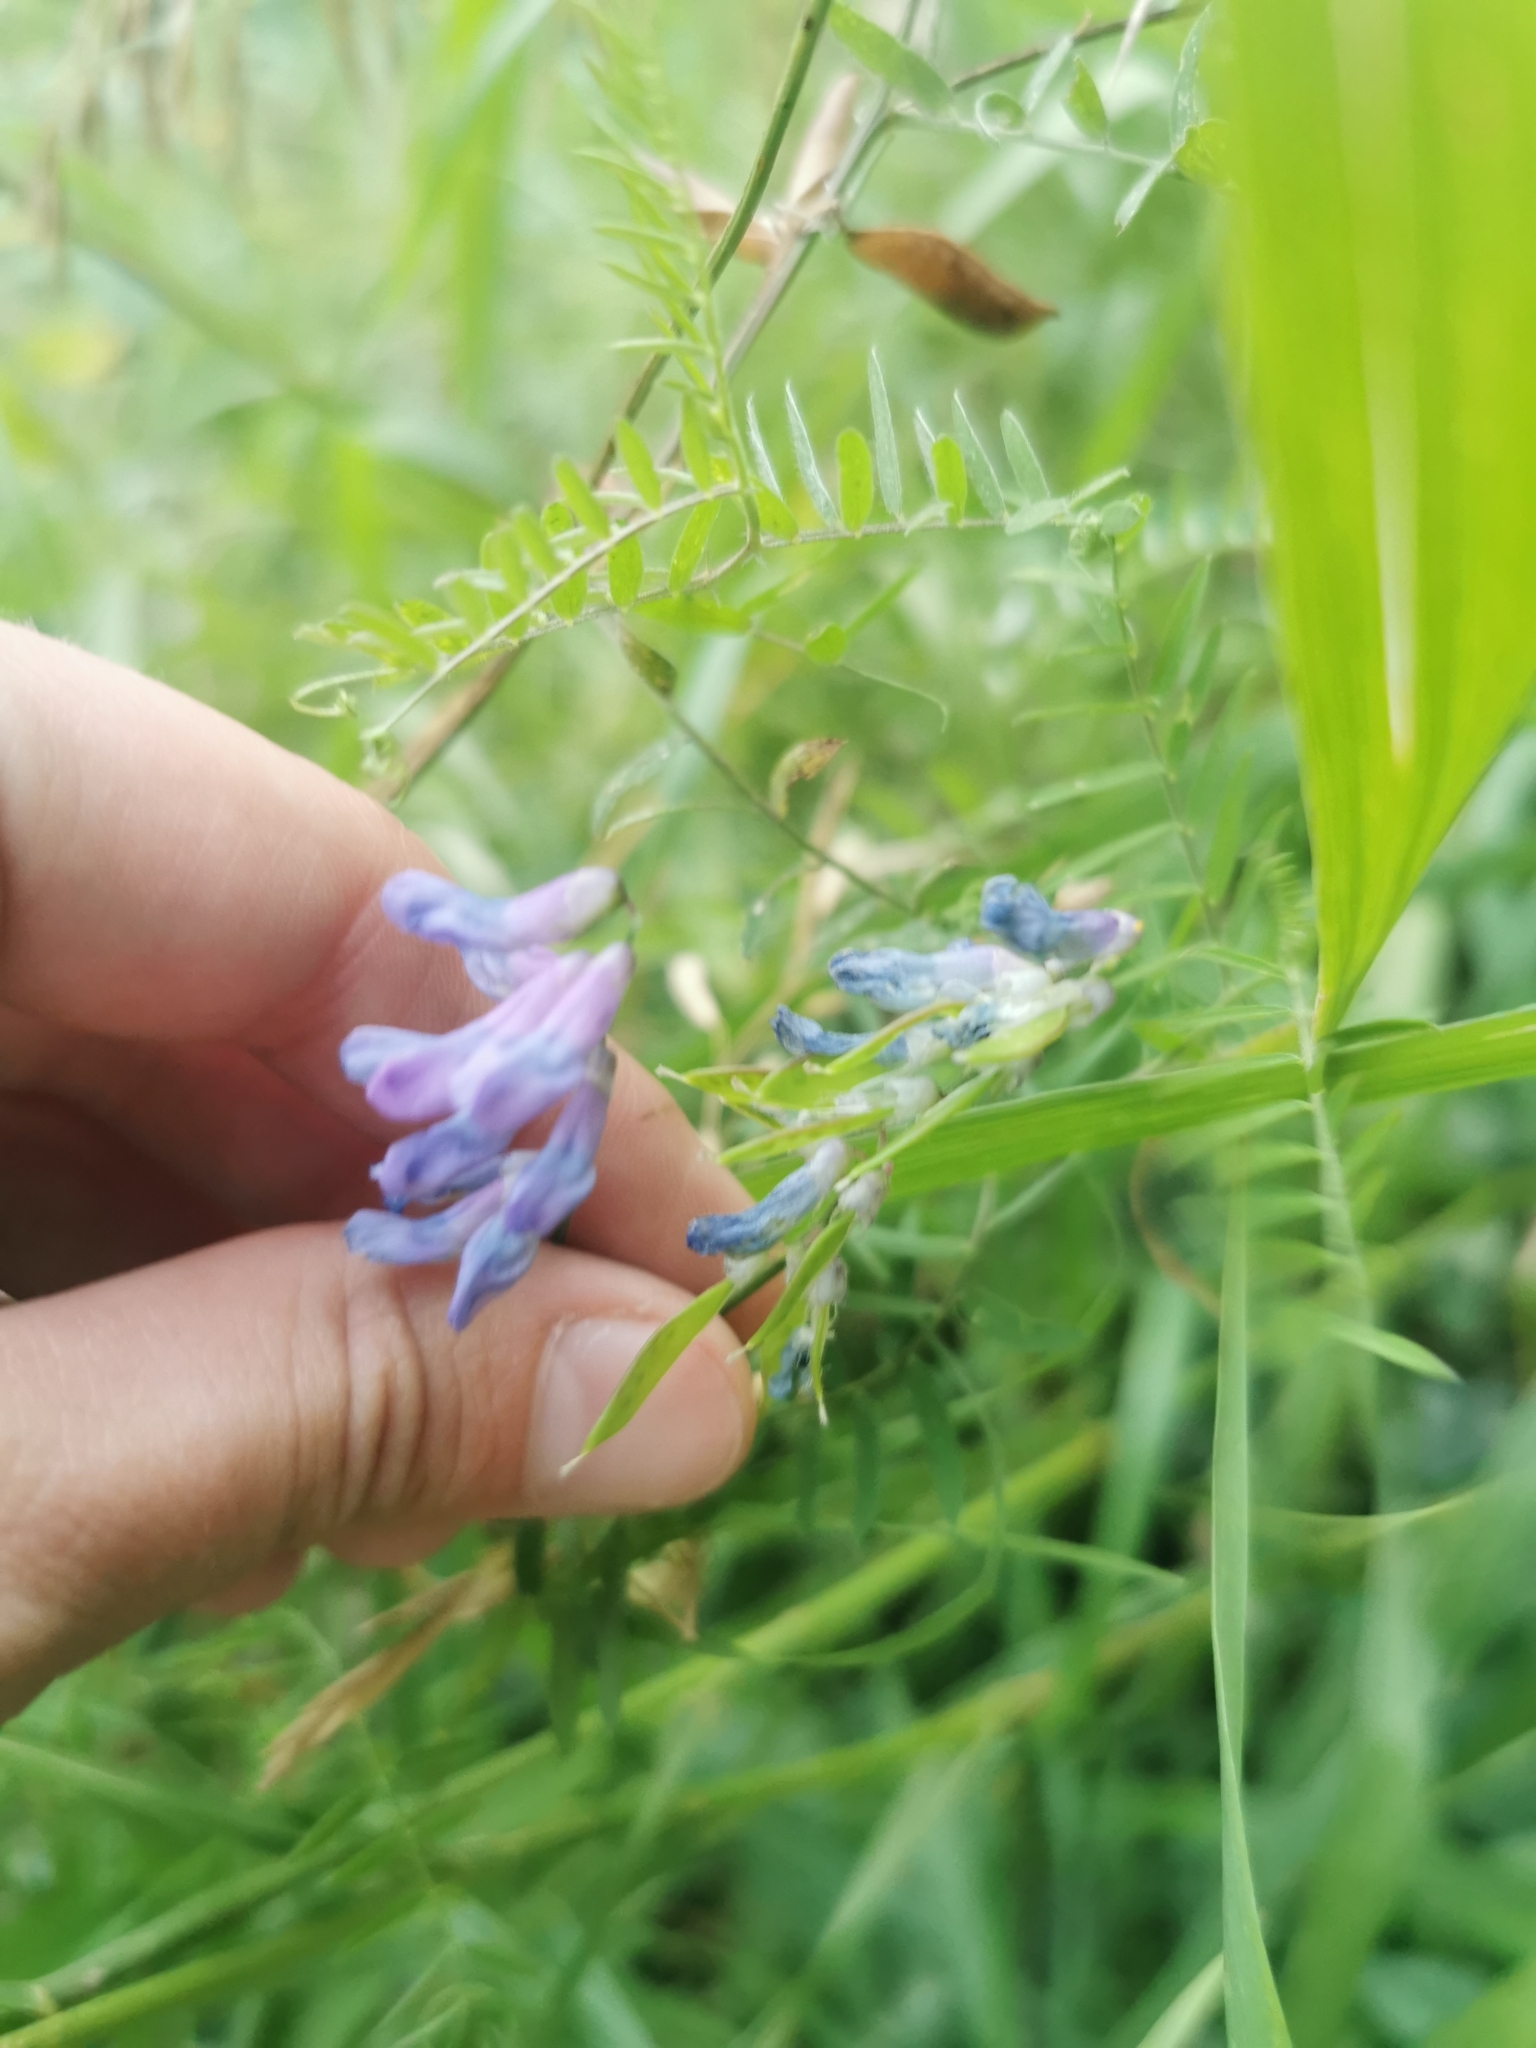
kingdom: Plantae
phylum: Tracheophyta
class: Magnoliopsida
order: Fabales
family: Fabaceae
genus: Vicia
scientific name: Vicia cracca
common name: Bird vetch
